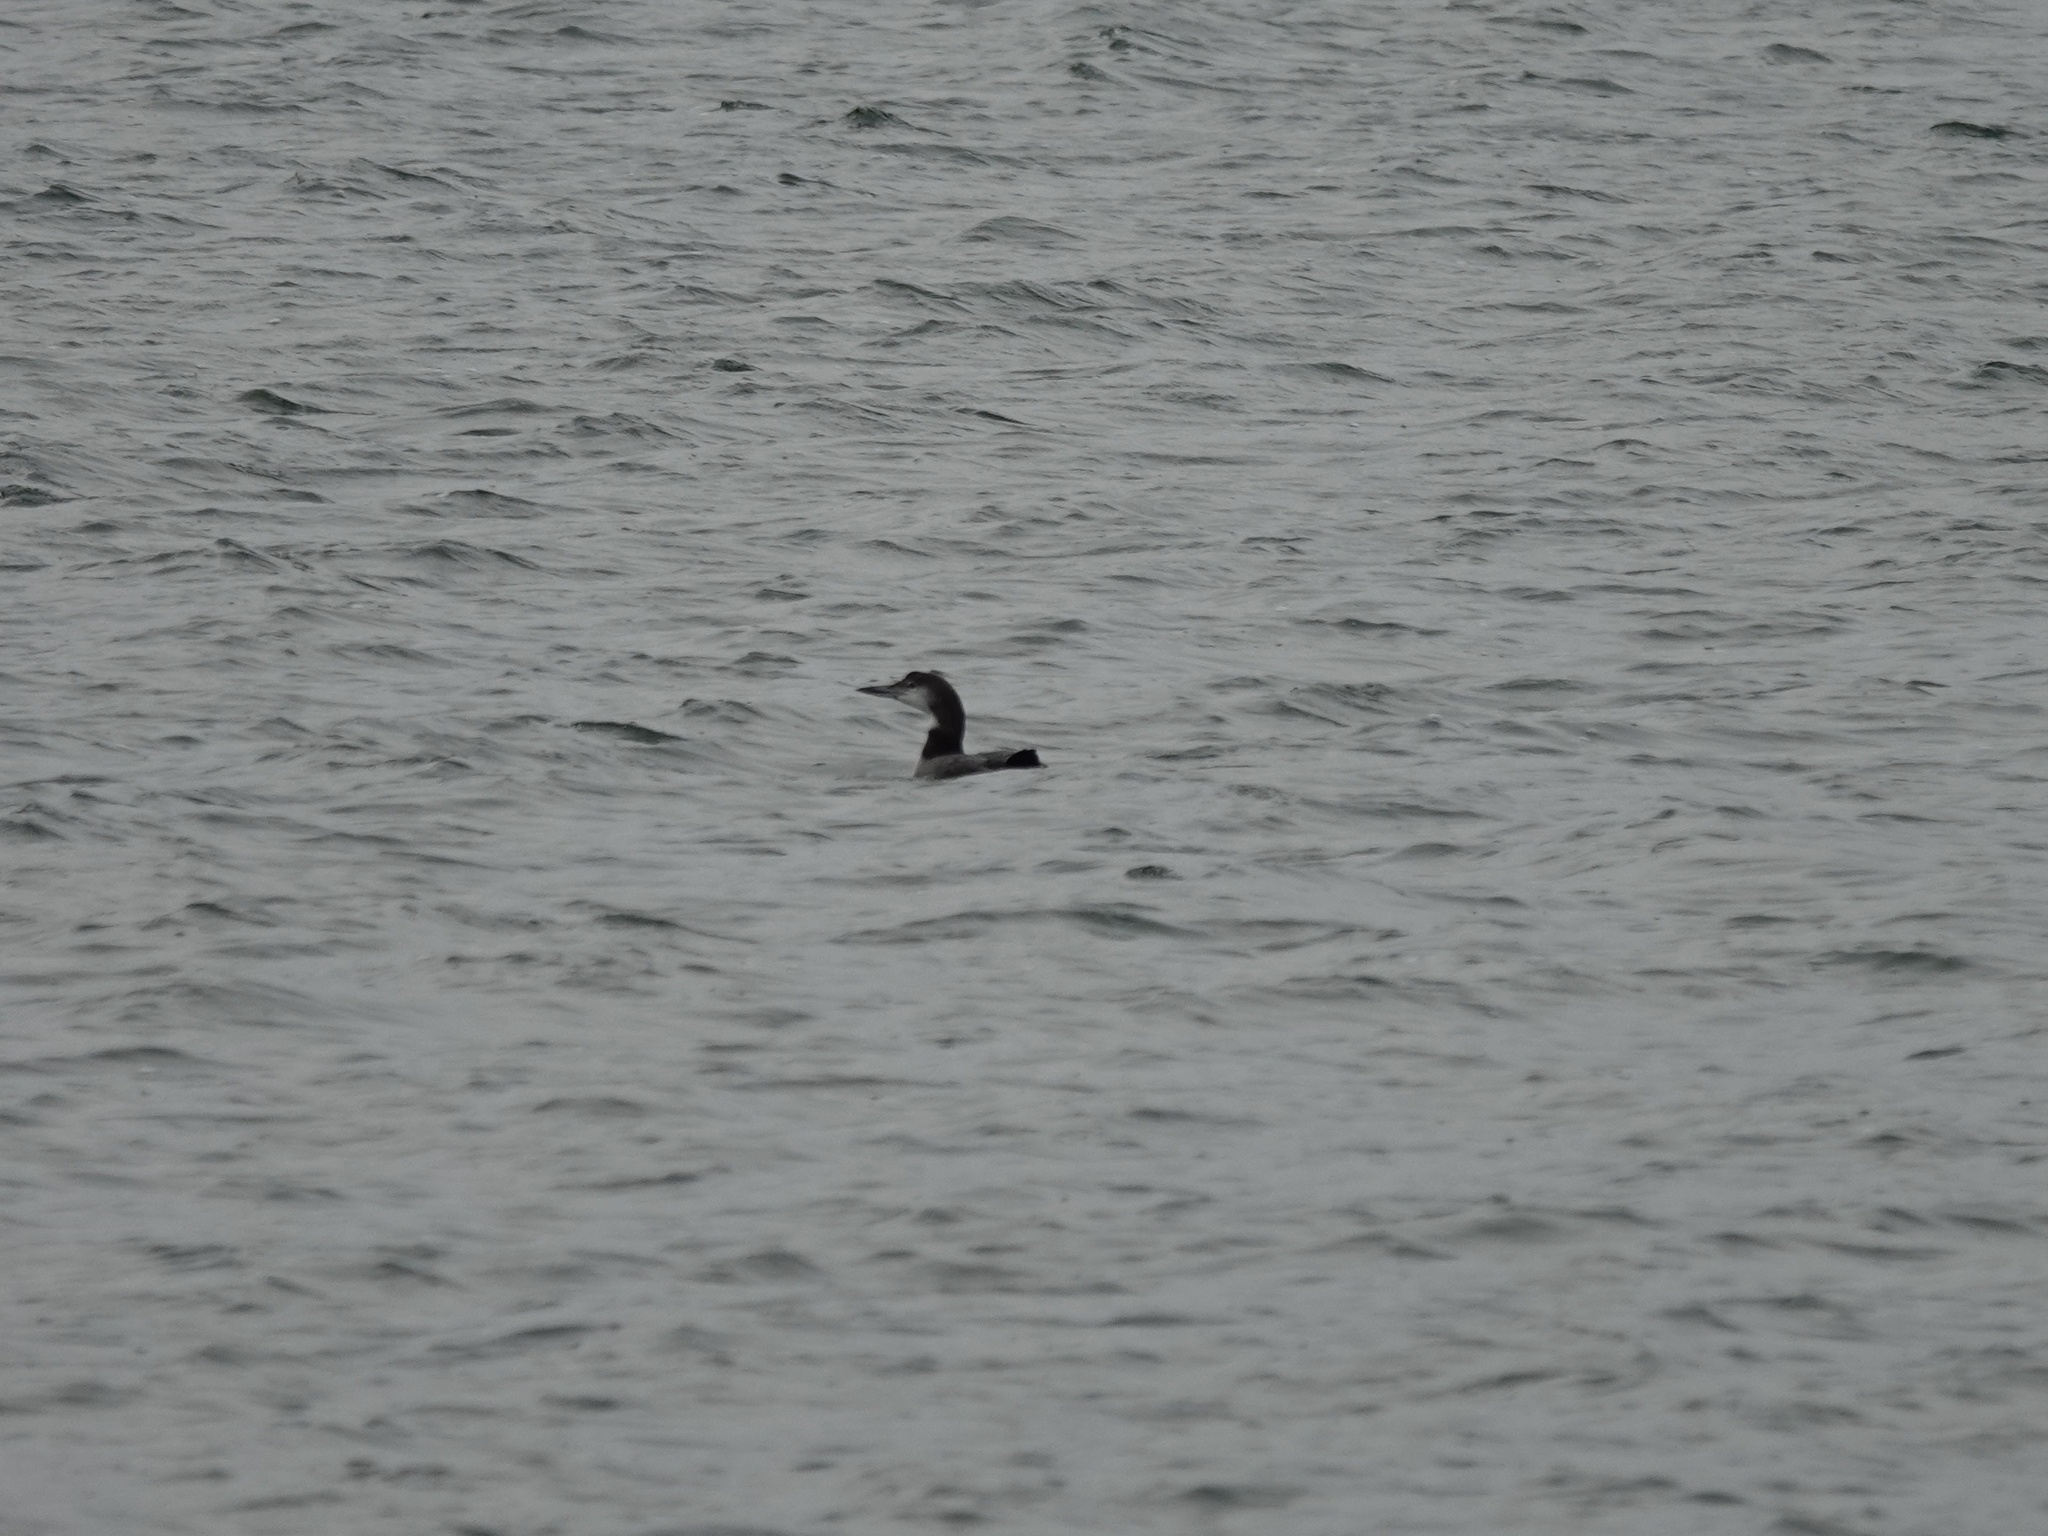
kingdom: Animalia
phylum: Chordata
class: Aves
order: Gaviiformes
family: Gaviidae
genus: Gavia
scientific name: Gavia immer
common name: Common loon
